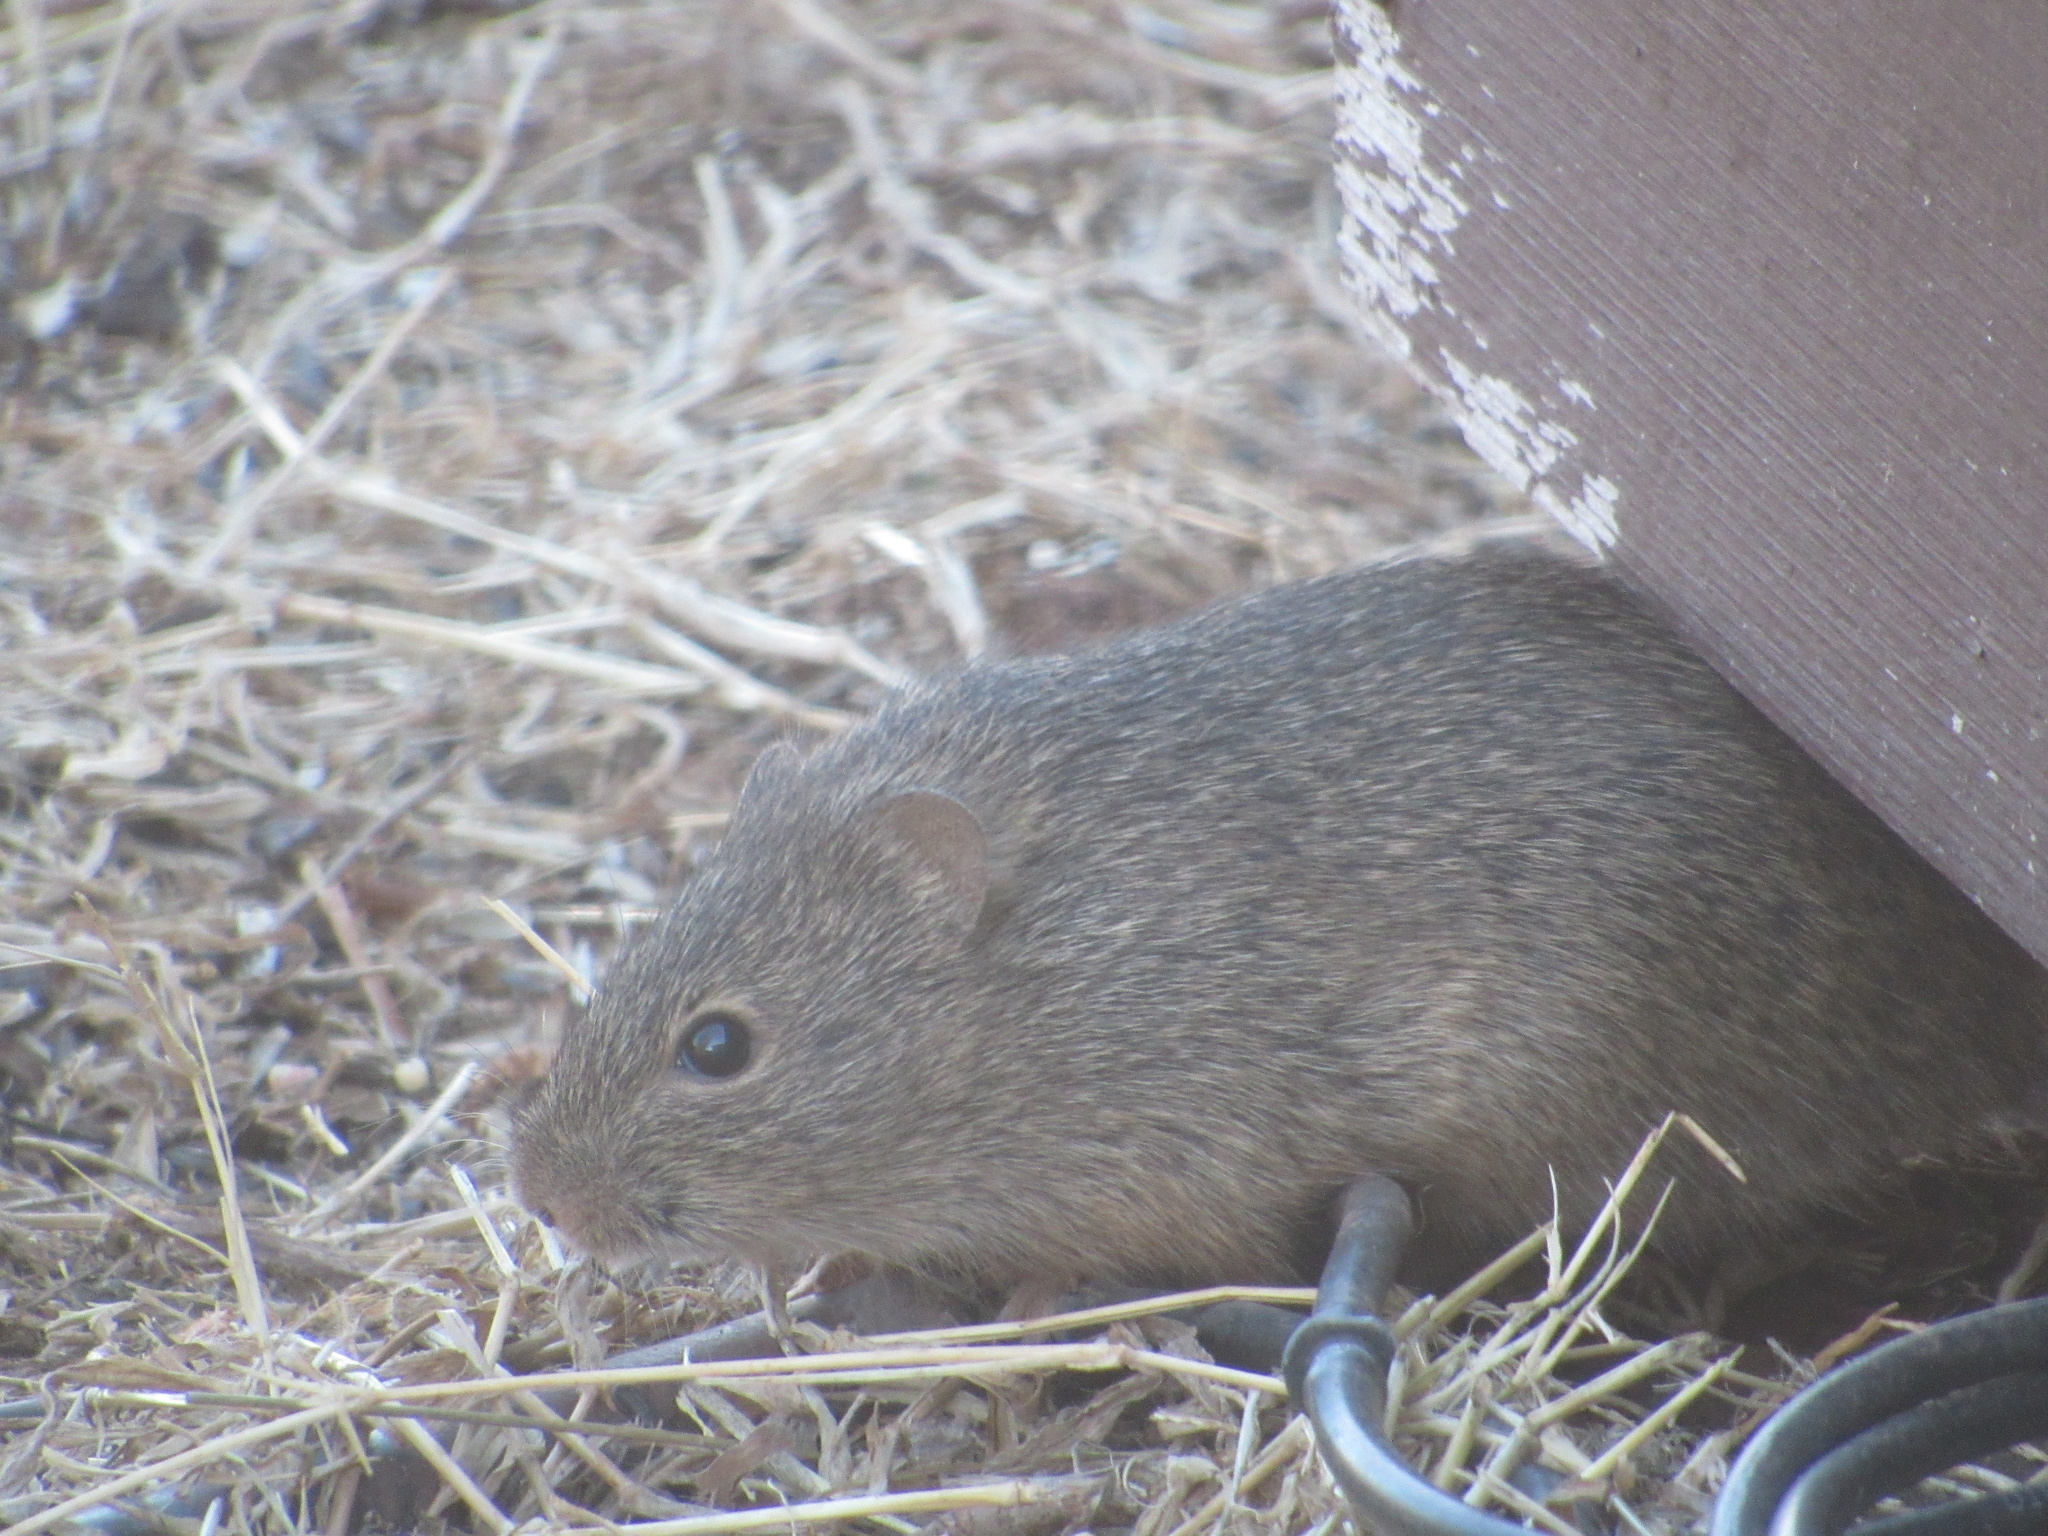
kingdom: Animalia
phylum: Chordata
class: Mammalia
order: Rodentia
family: Cricetidae
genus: Sigmodon
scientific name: Sigmodon hispidus
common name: Hispid cotton rat
